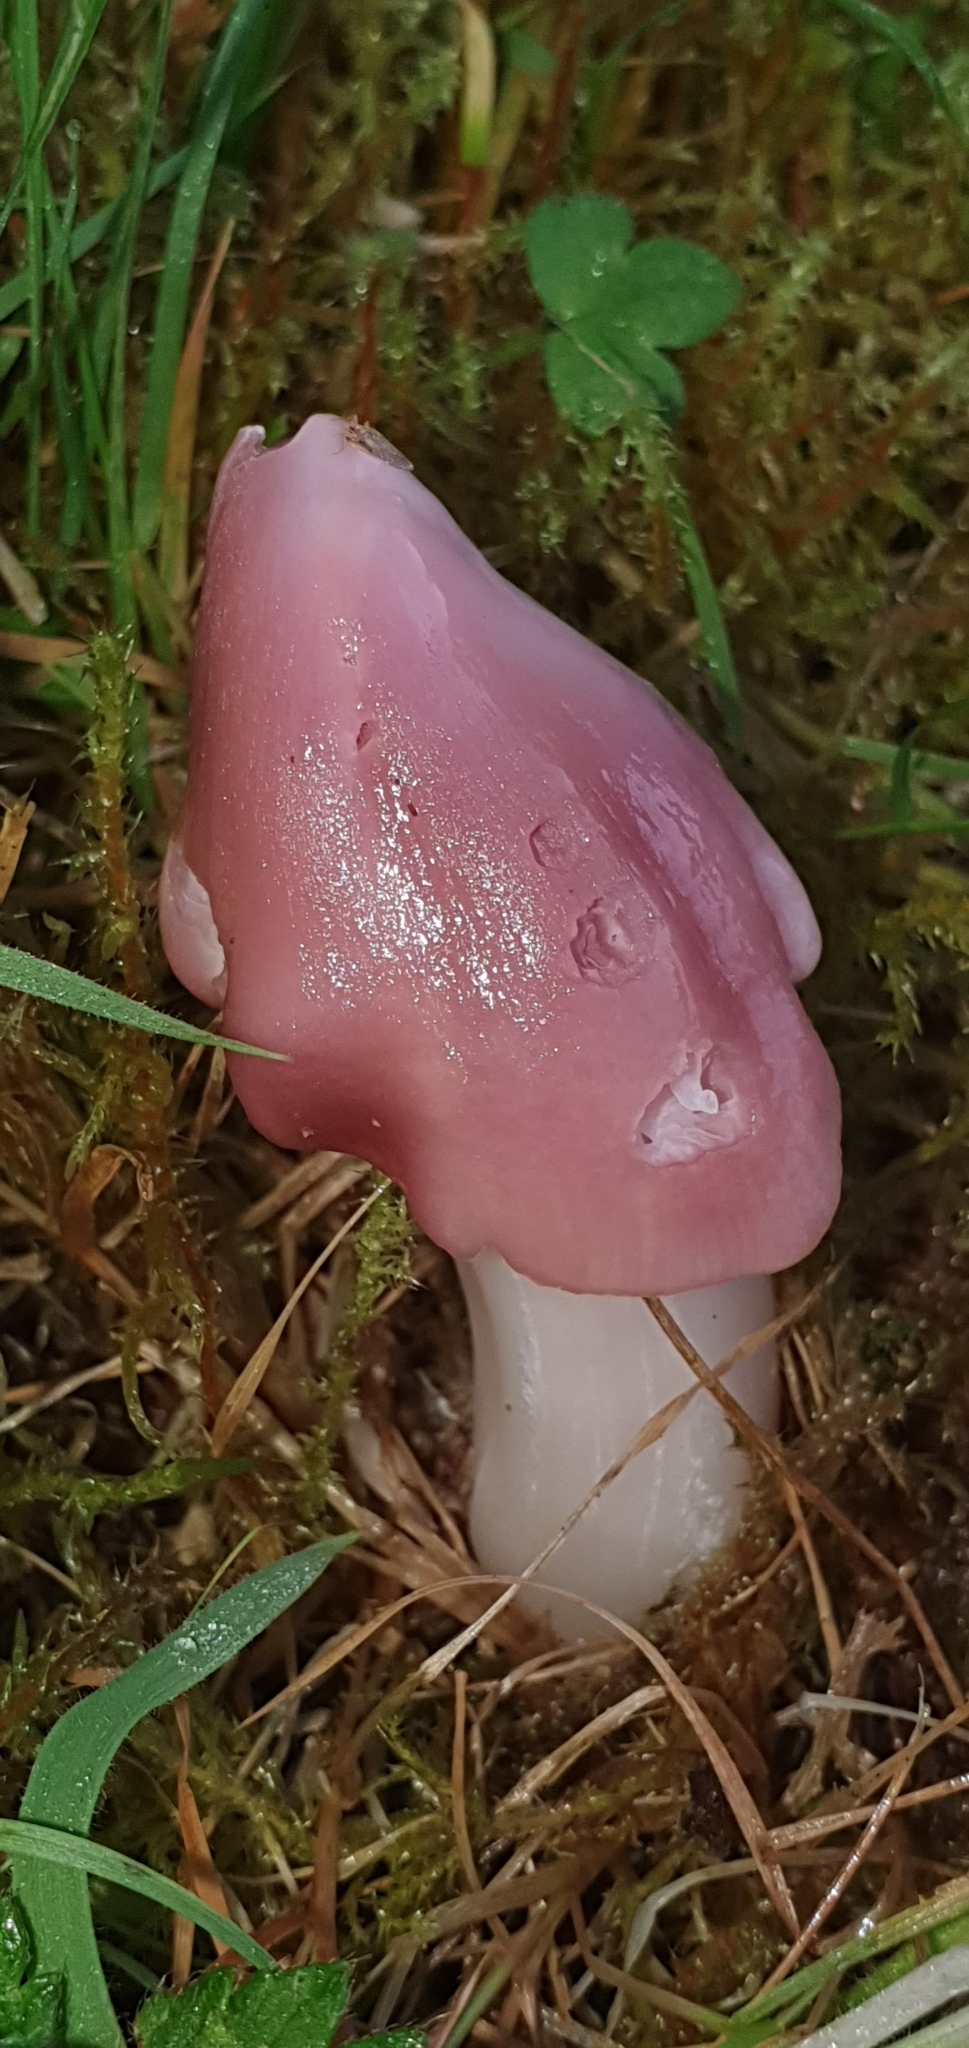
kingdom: Fungi
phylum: Basidiomycota
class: Agaricomycetes
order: Agaricales
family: Hygrophoraceae
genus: Porpolomopsis
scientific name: Porpolomopsis calyptriformis
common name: Pink waxcap
